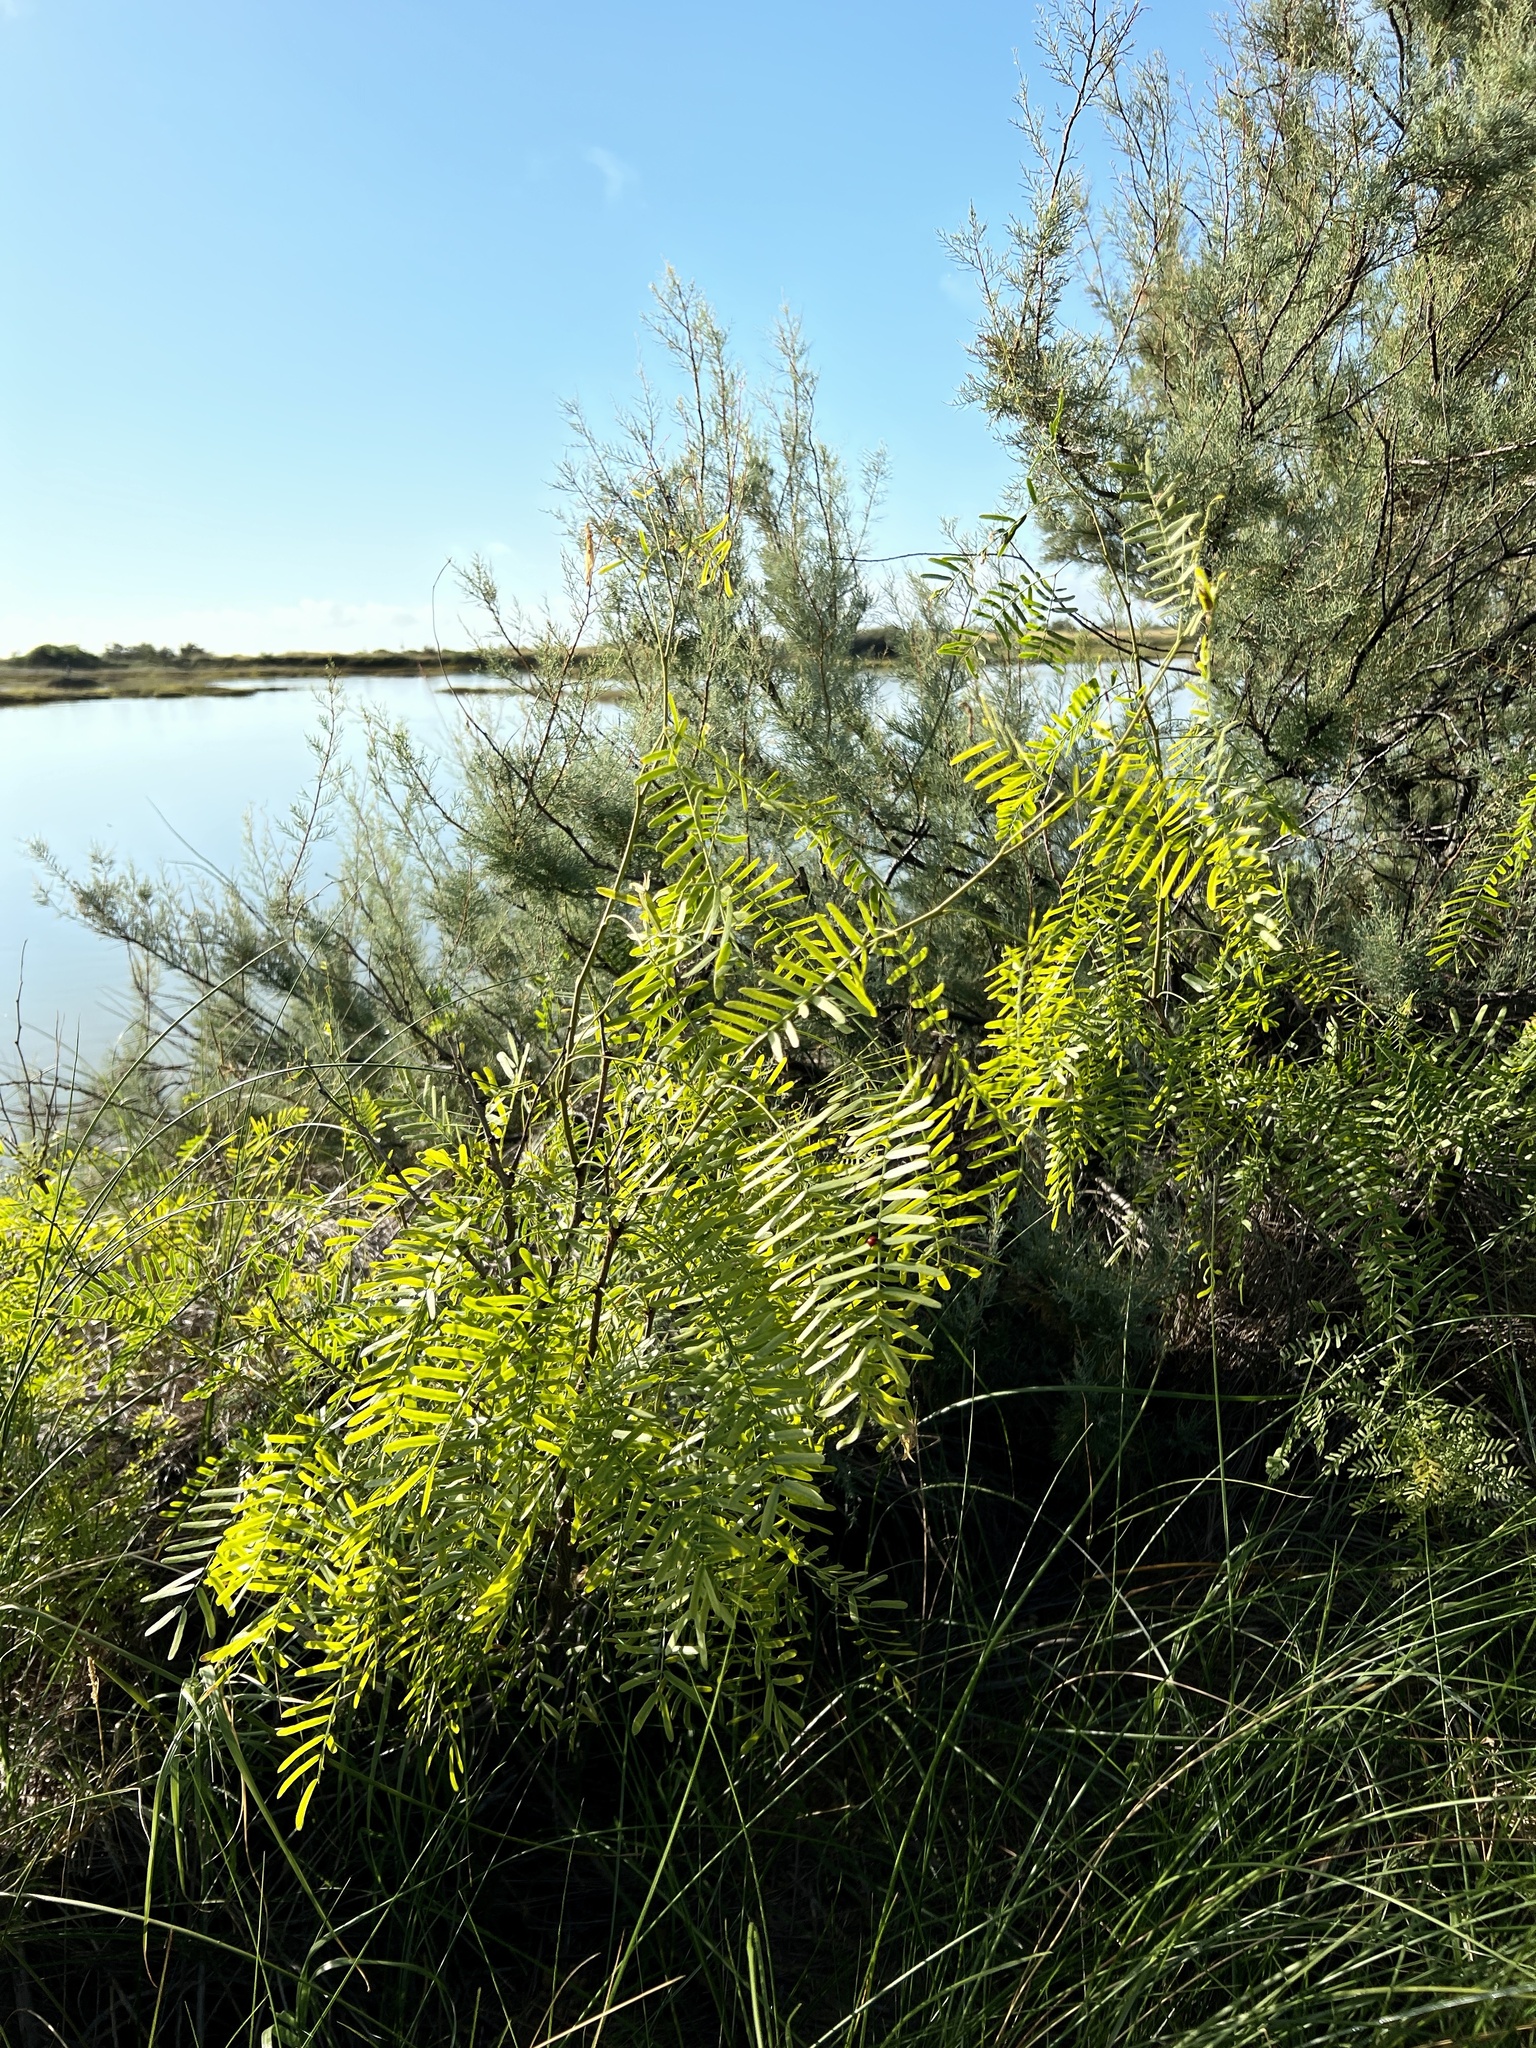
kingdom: Plantae
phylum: Tracheophyta
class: Magnoliopsida
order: Fabales
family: Fabaceae
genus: Prosopis
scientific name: Prosopis glandulosa
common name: Honey mesquite
